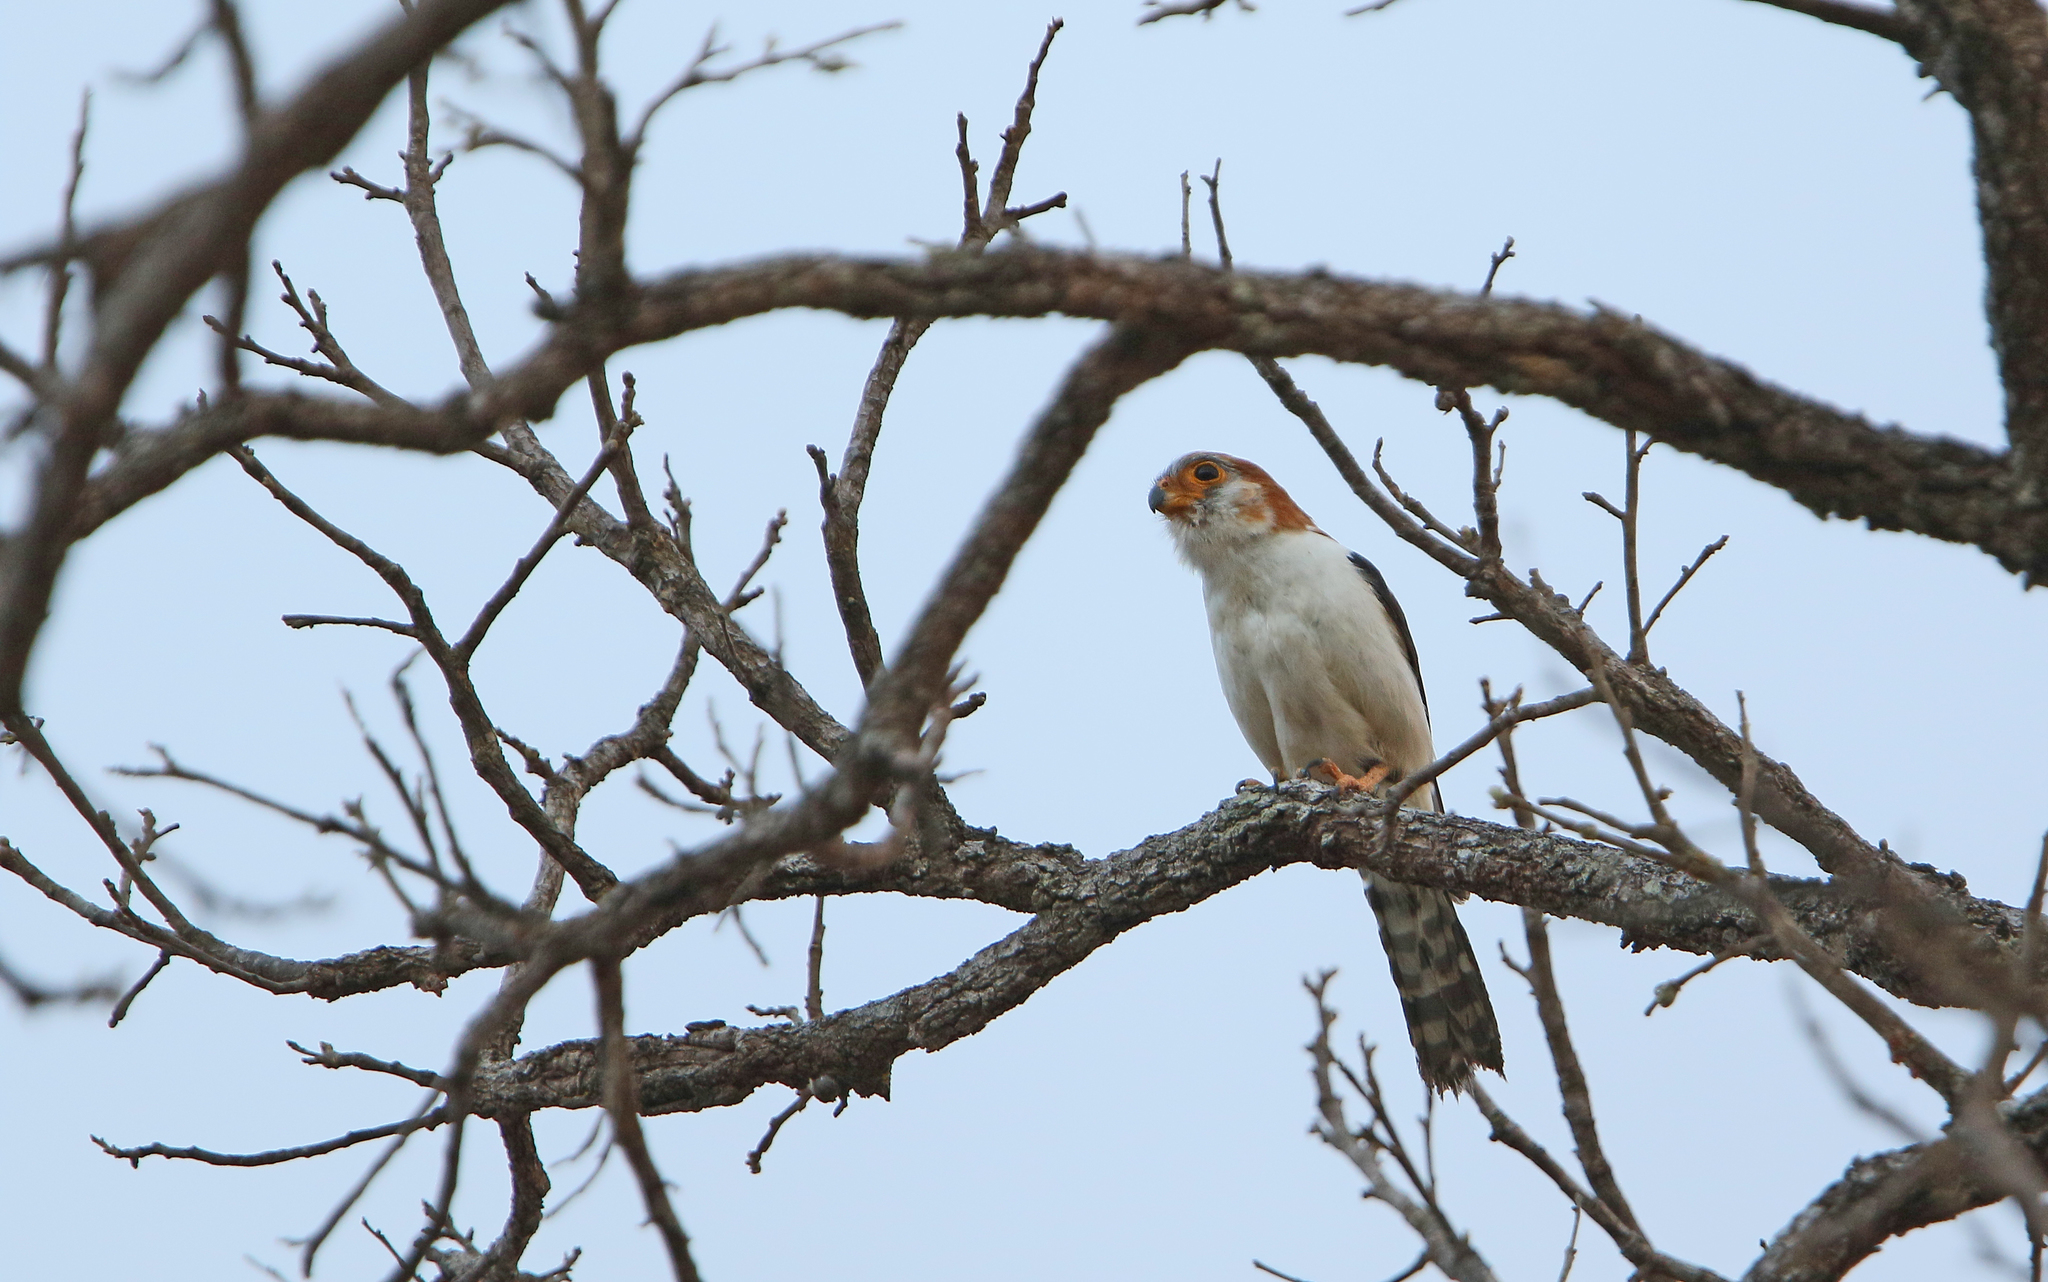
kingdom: Animalia
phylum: Chordata
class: Aves
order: Falconiformes
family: Falconidae
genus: Polihierax
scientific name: Polihierax insignis
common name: White-rumped falcon
